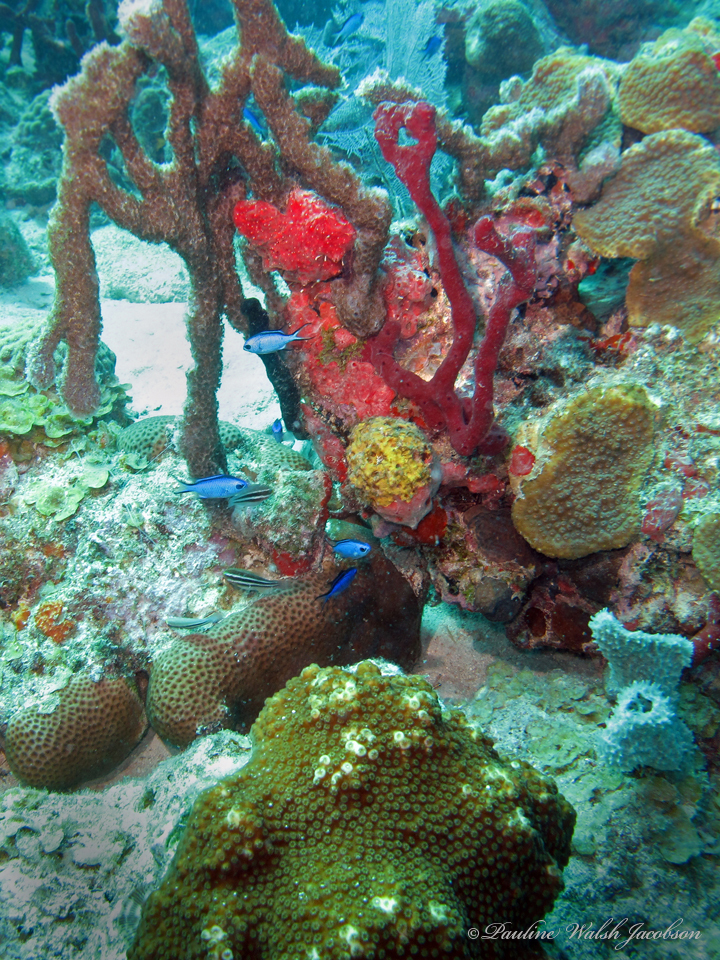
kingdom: Animalia
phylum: Chordata
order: Perciformes
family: Pomacentridae
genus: Chromis
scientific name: Chromis cyanea
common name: Blue chromis
